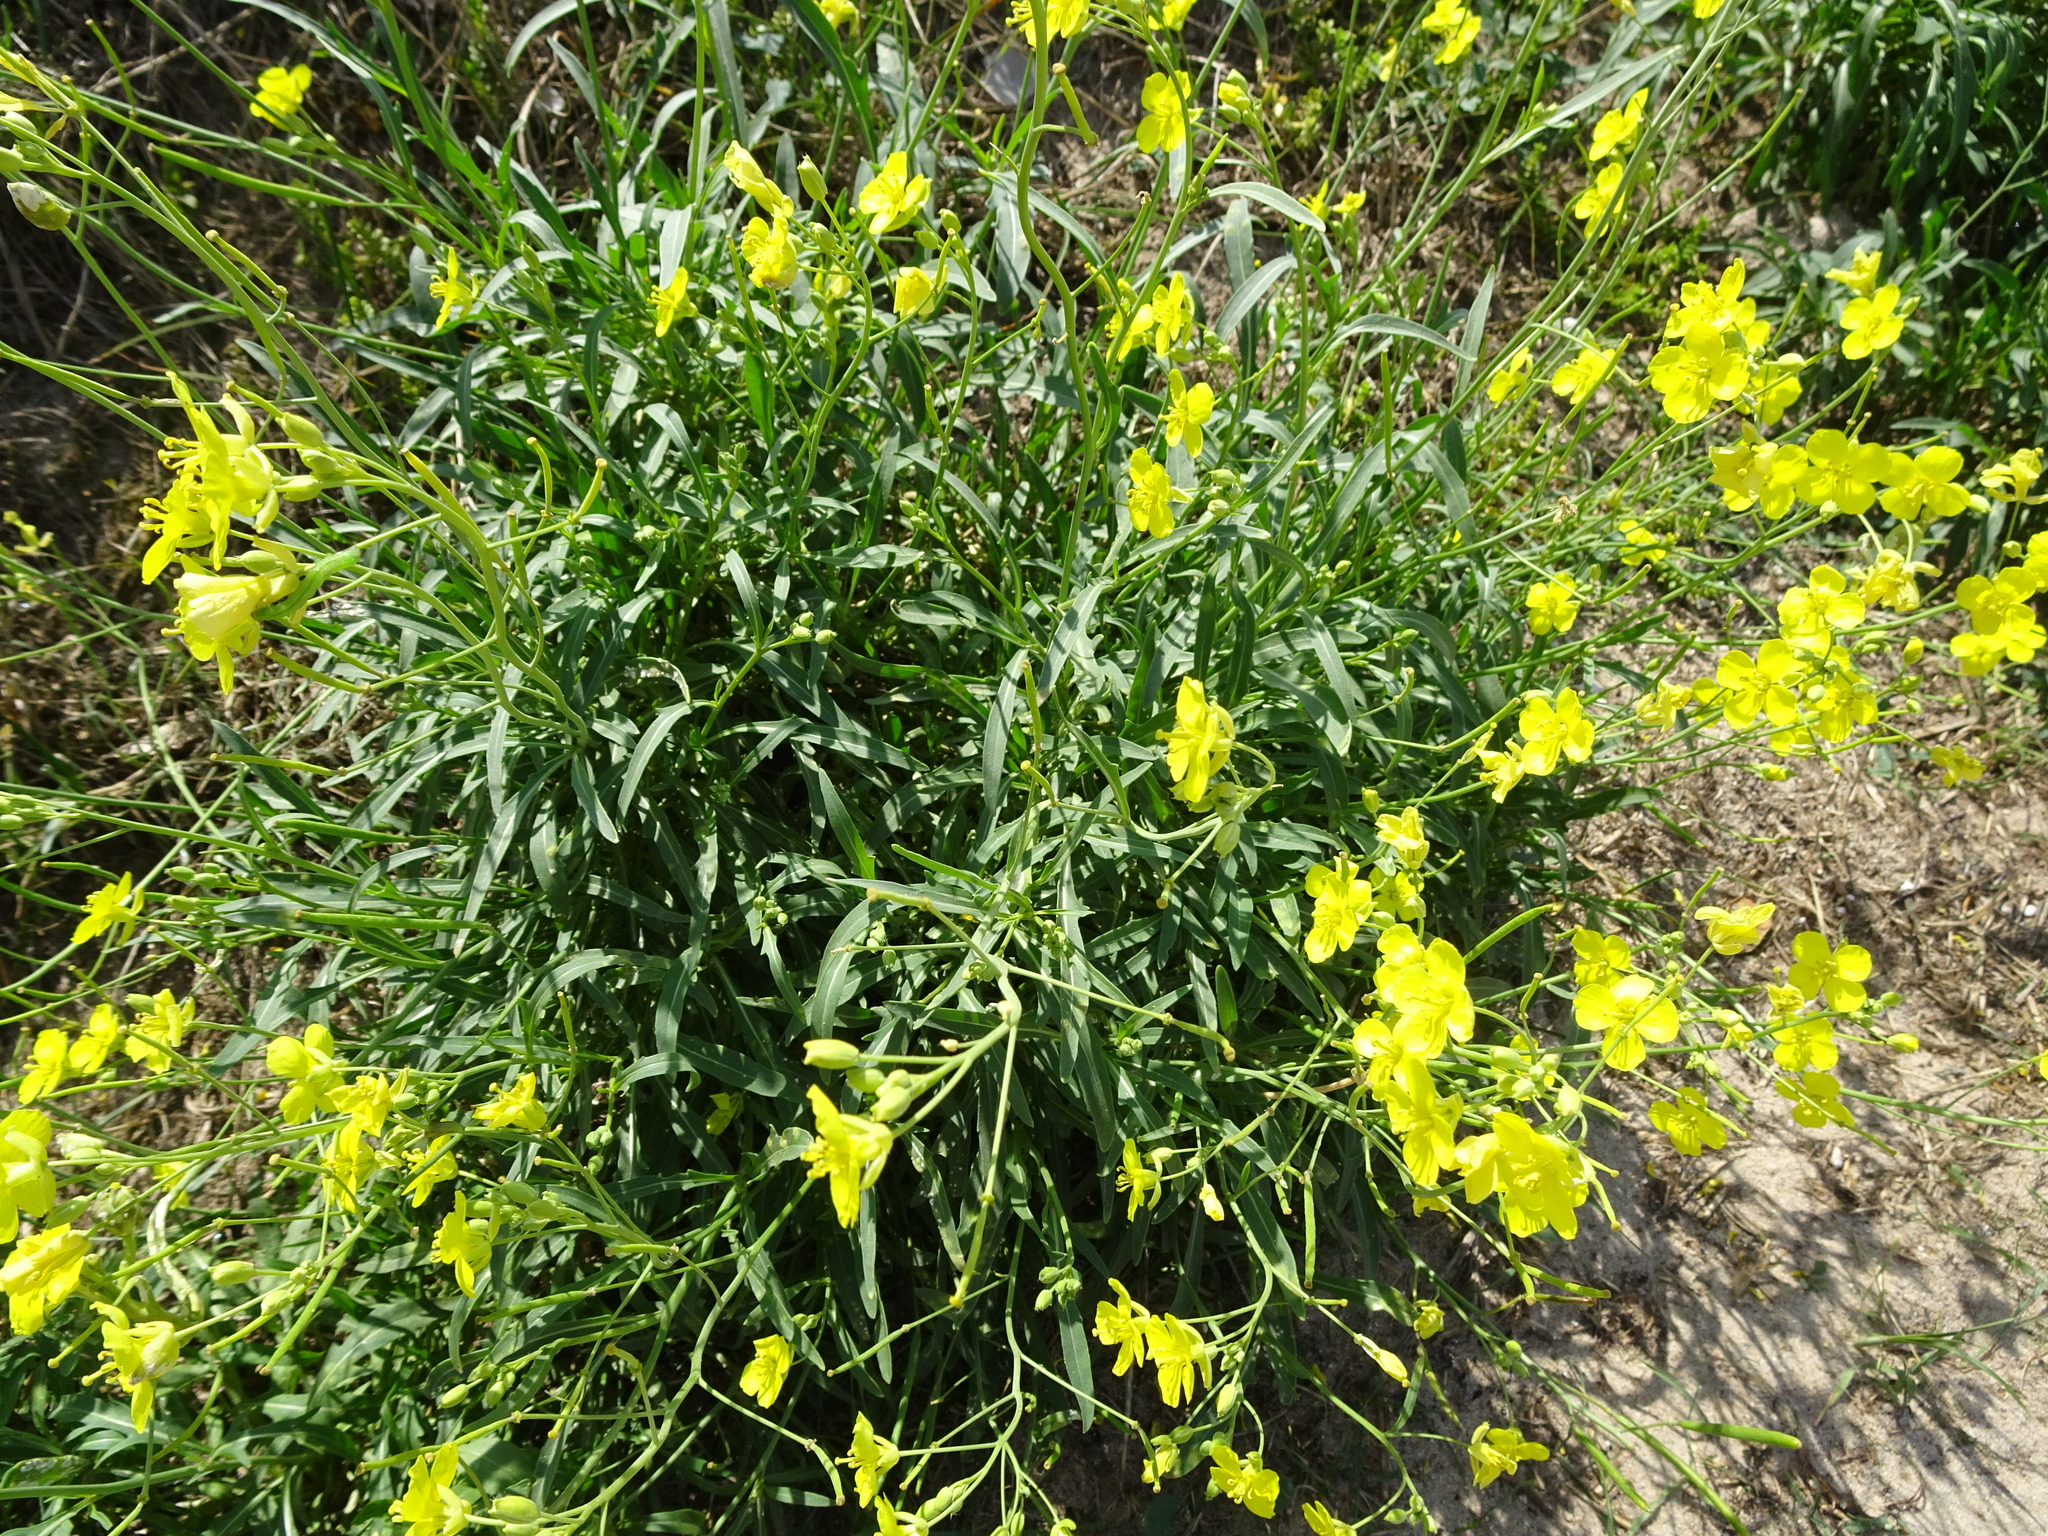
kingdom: Plantae
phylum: Tracheophyta
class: Magnoliopsida
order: Brassicales
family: Brassicaceae
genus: Diplotaxis
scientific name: Diplotaxis tenuifolia
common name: Perennial wall-rocket
